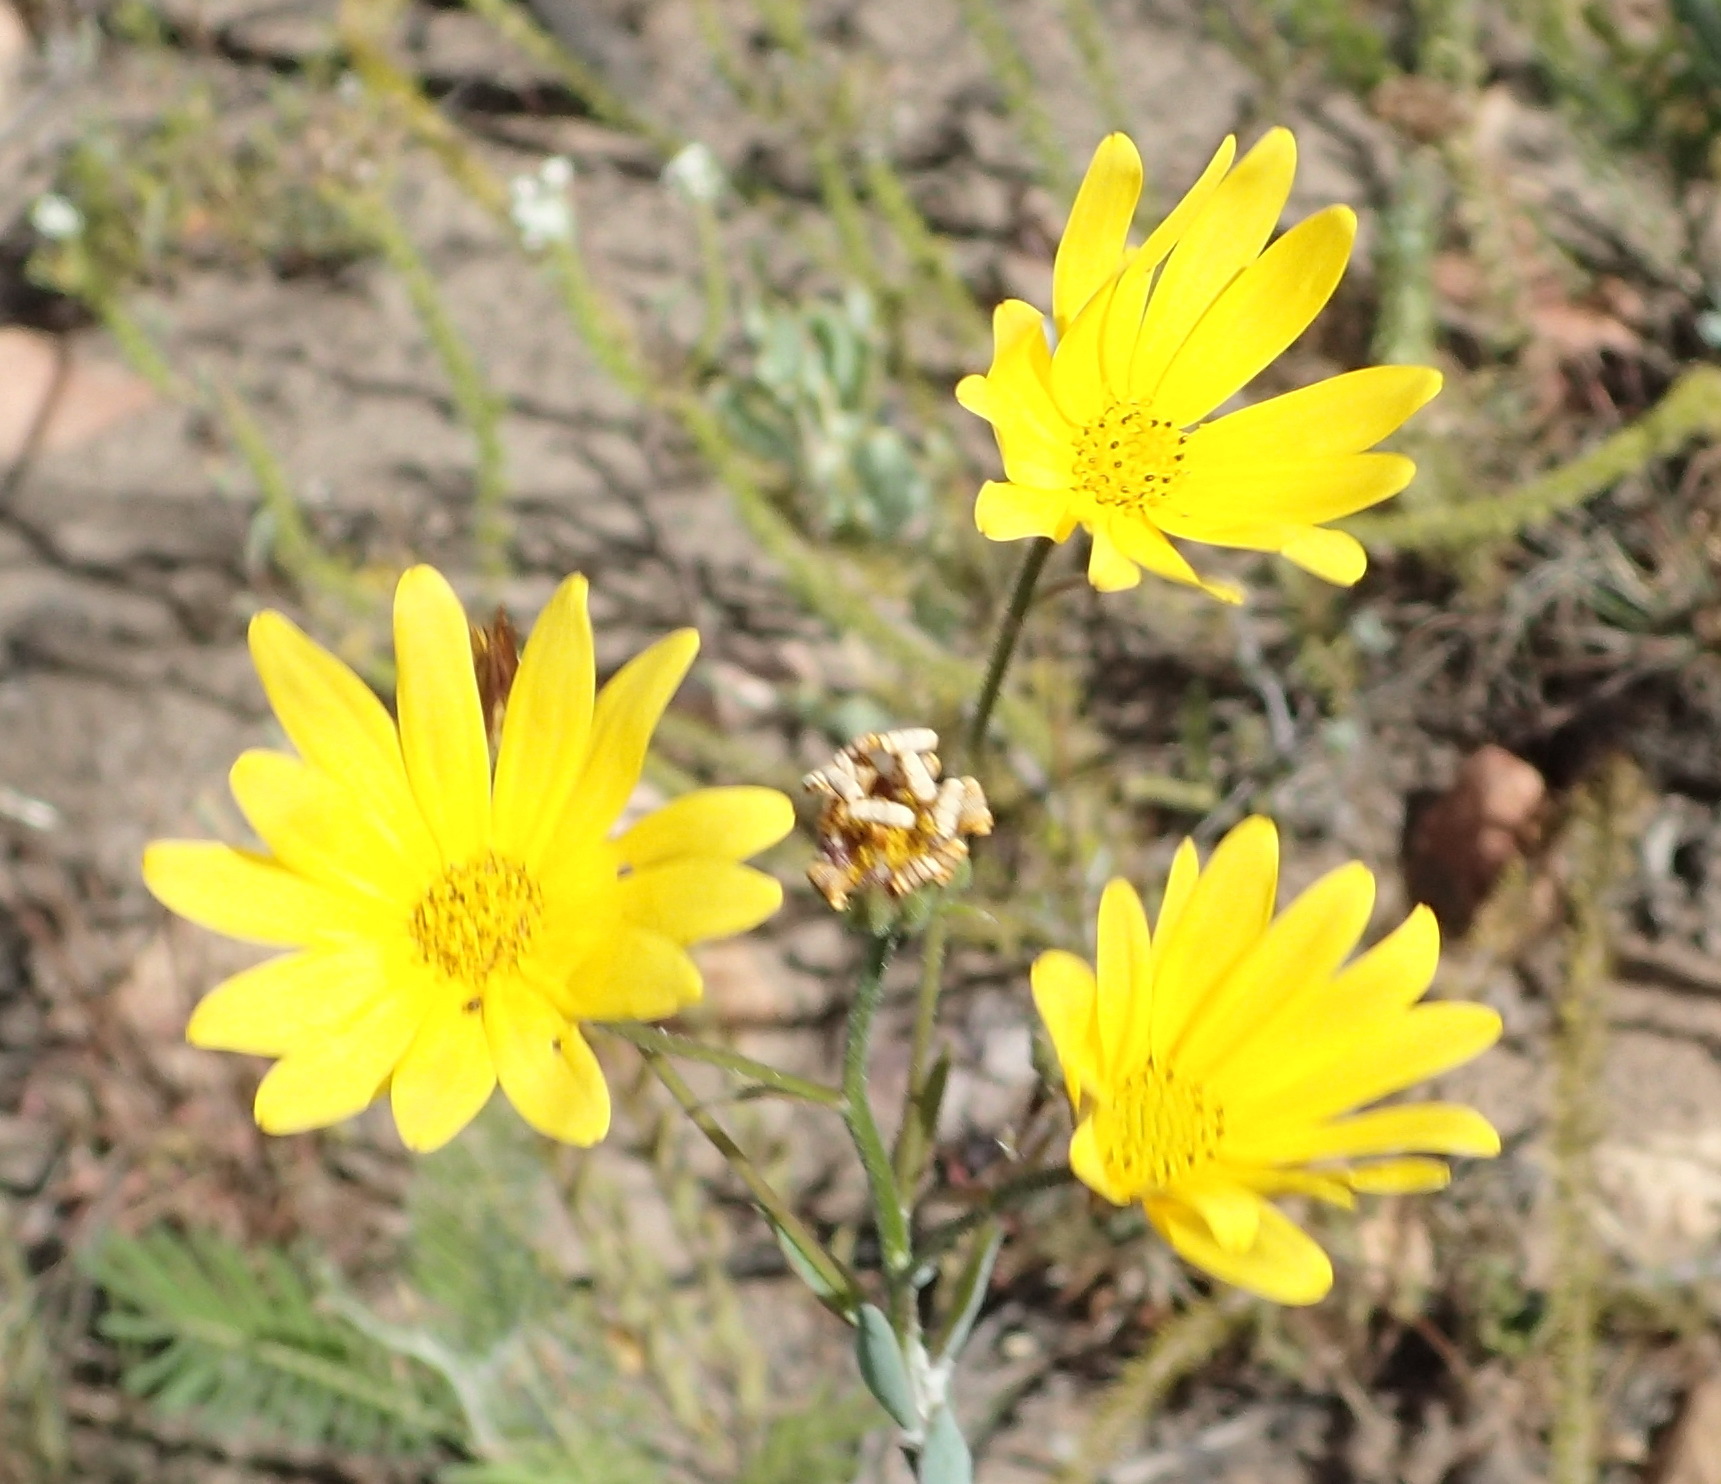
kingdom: Plantae
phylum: Tracheophyta
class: Magnoliopsida
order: Asterales
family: Asteraceae
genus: Osteospermum
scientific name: Osteospermum polygaloides
